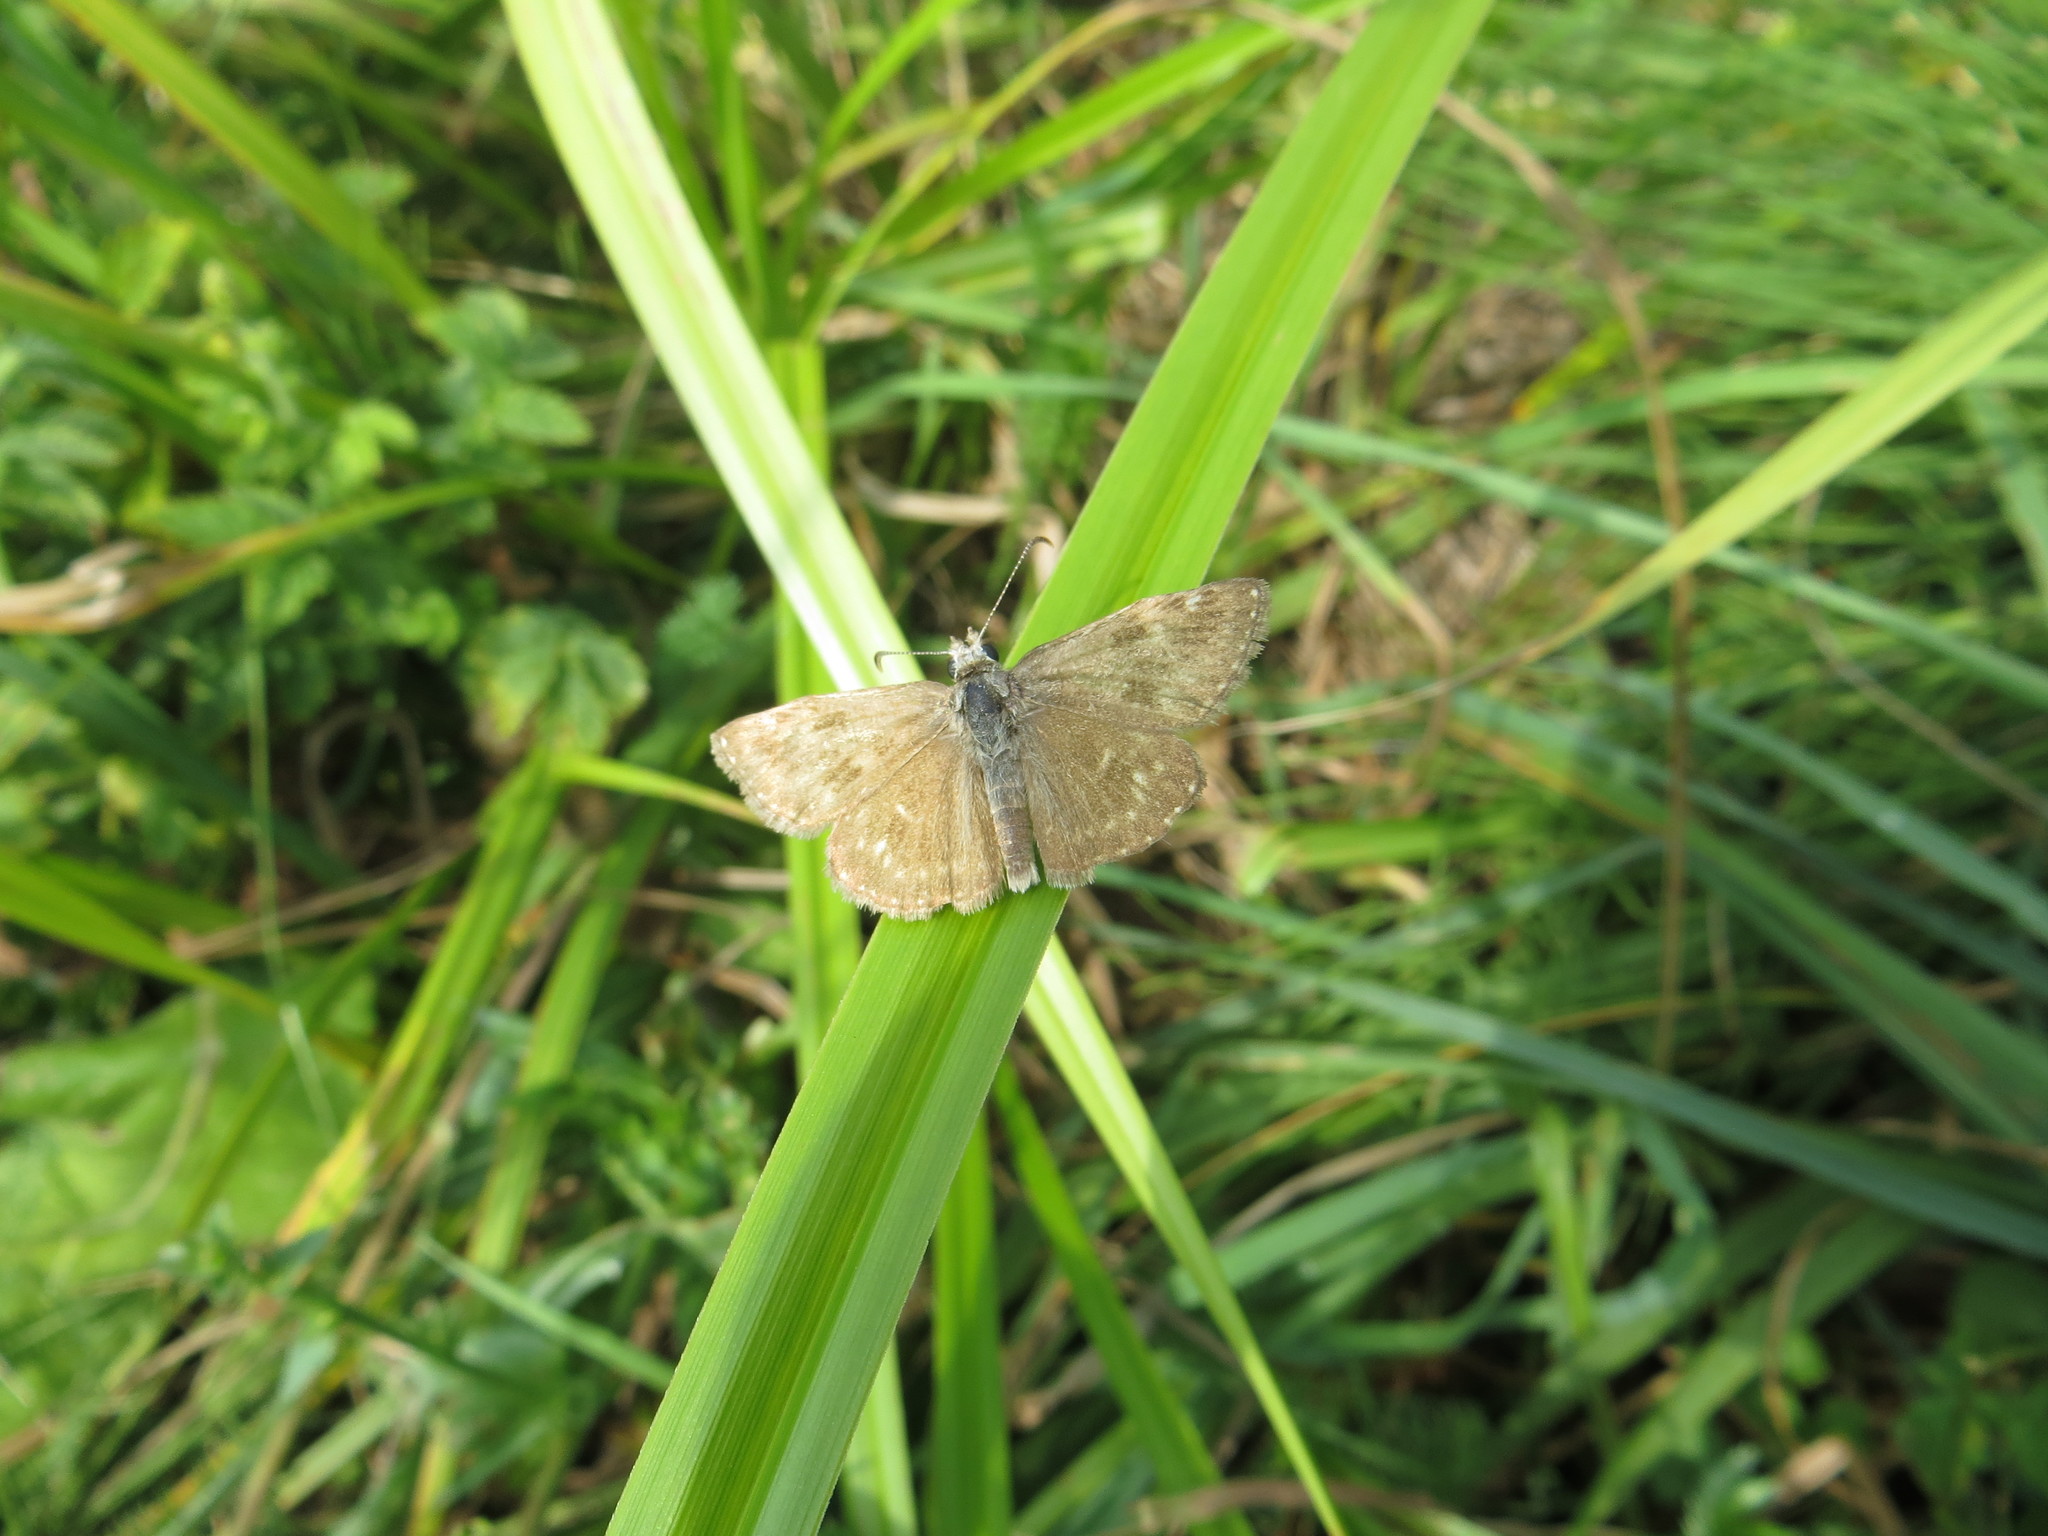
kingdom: Animalia
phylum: Arthropoda
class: Insecta
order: Lepidoptera
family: Hesperiidae
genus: Erynnis
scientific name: Erynnis tages
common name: Dingy skipper
